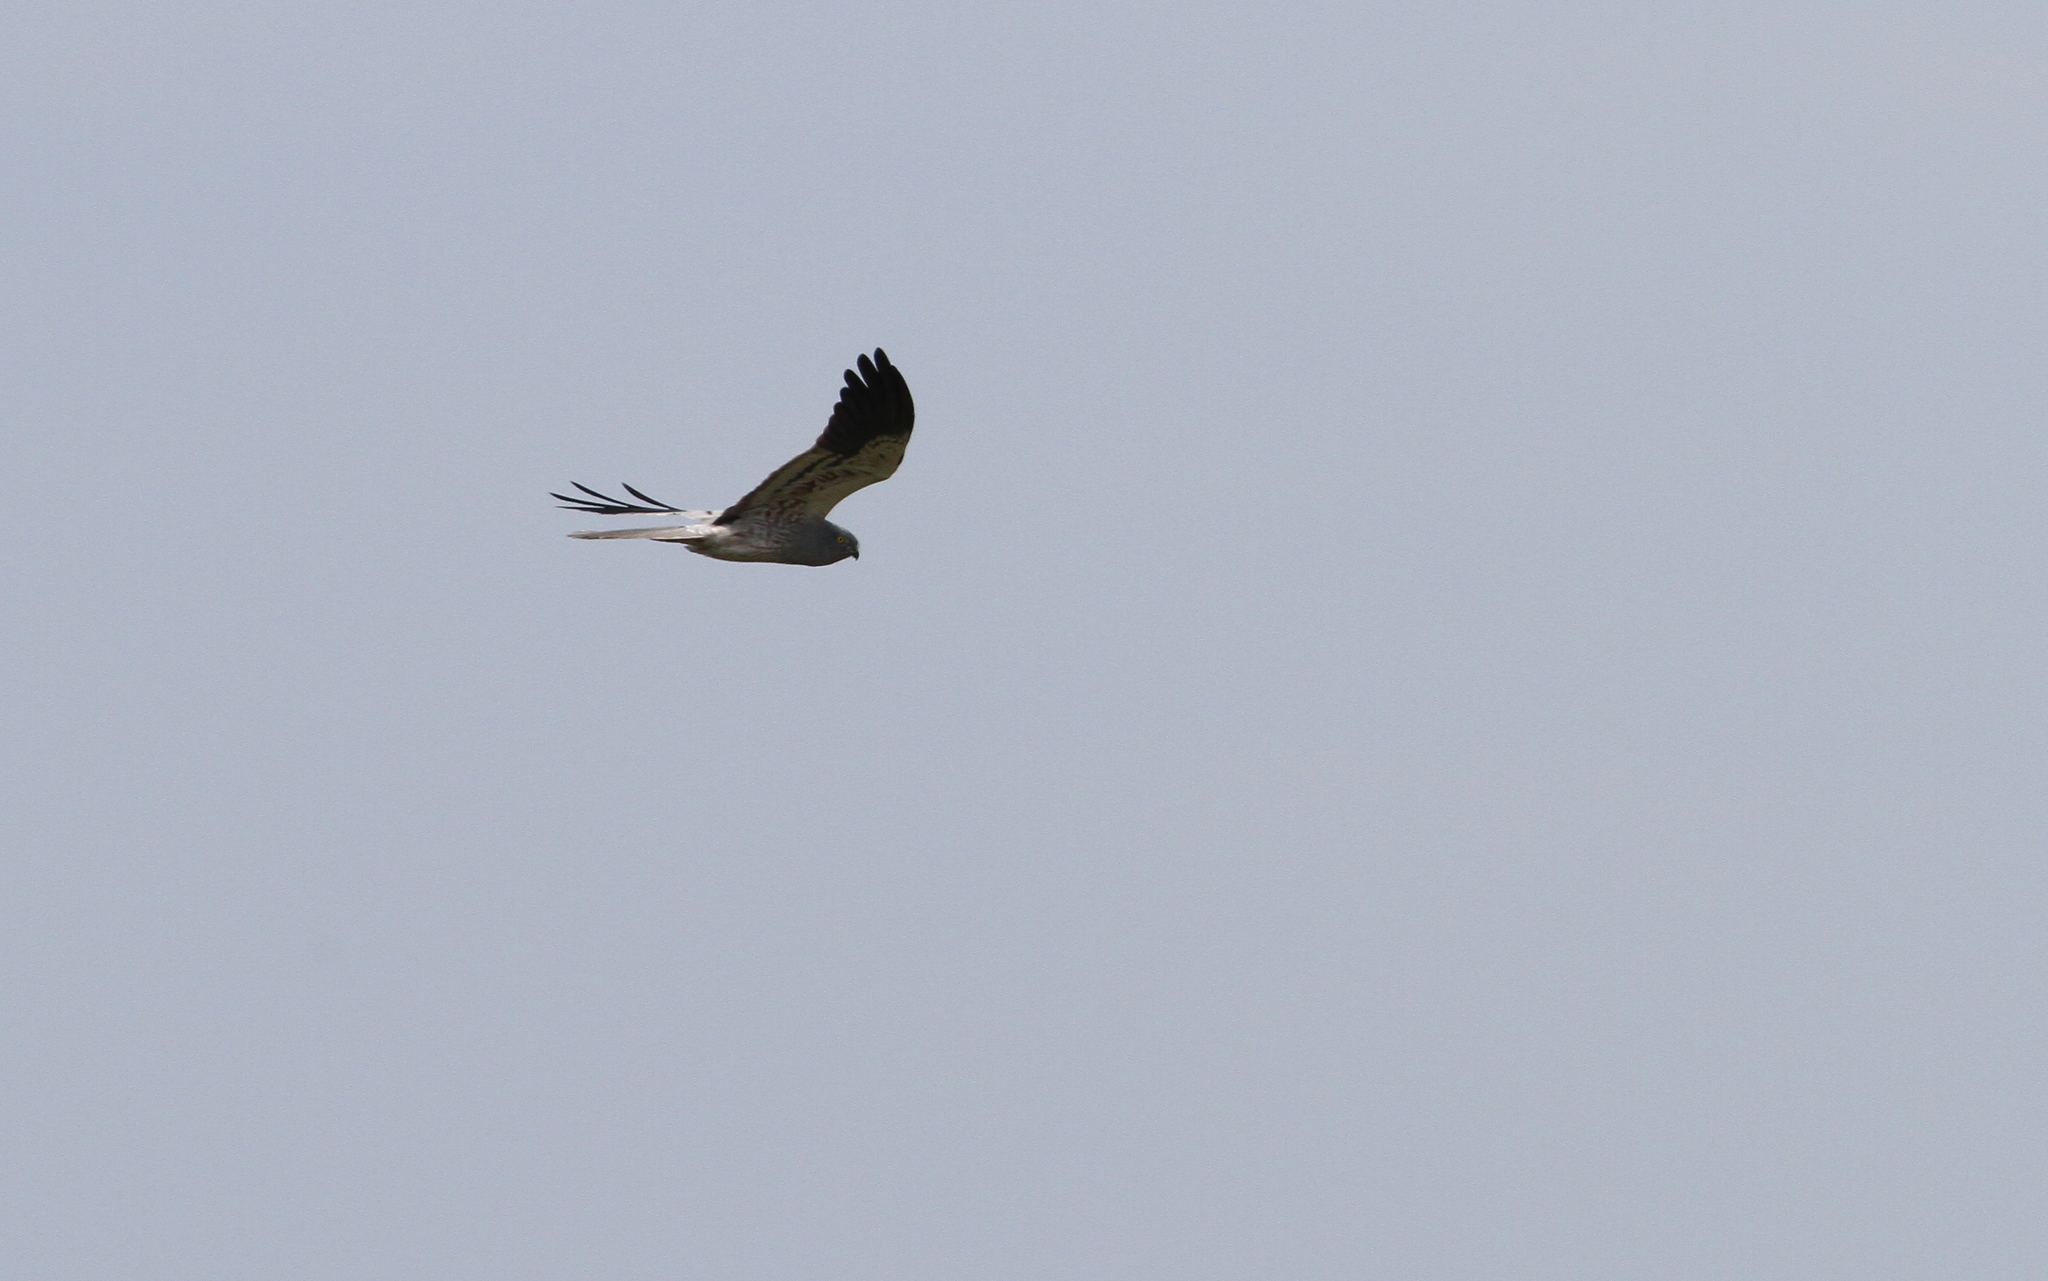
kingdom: Animalia
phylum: Chordata
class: Aves
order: Accipitriformes
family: Accipitridae
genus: Circus
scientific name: Circus pygargus
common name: Montagu's harrier
